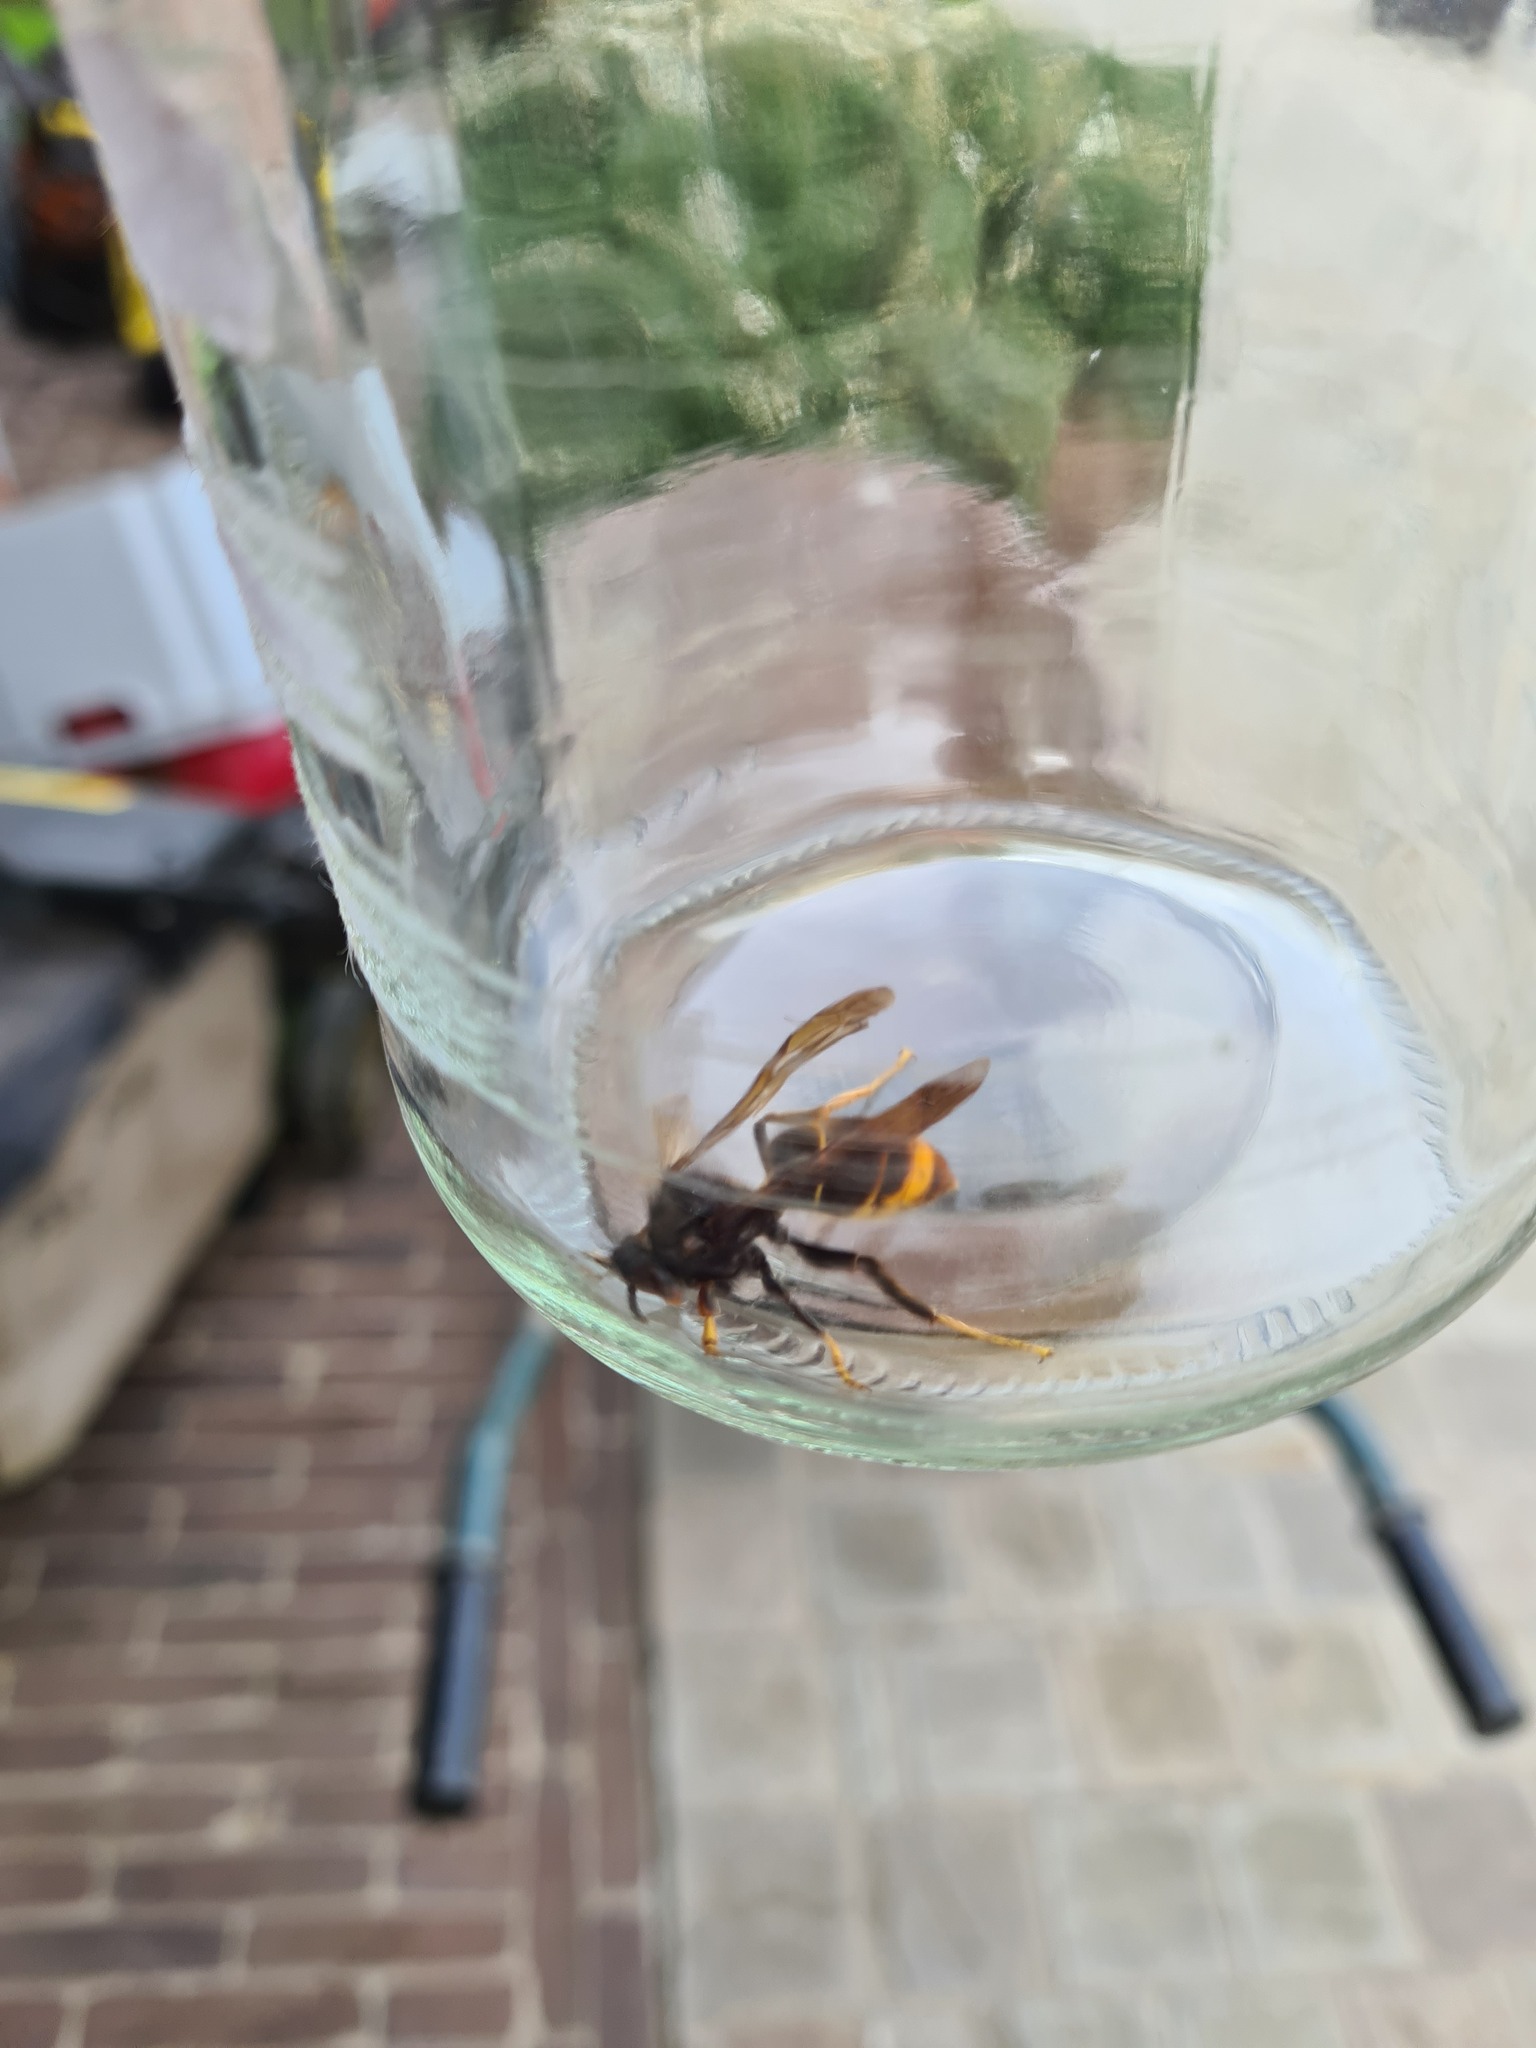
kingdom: Animalia
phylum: Arthropoda
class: Insecta
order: Hymenoptera
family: Vespidae
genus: Vespa
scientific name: Vespa velutina
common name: Asian hornet
